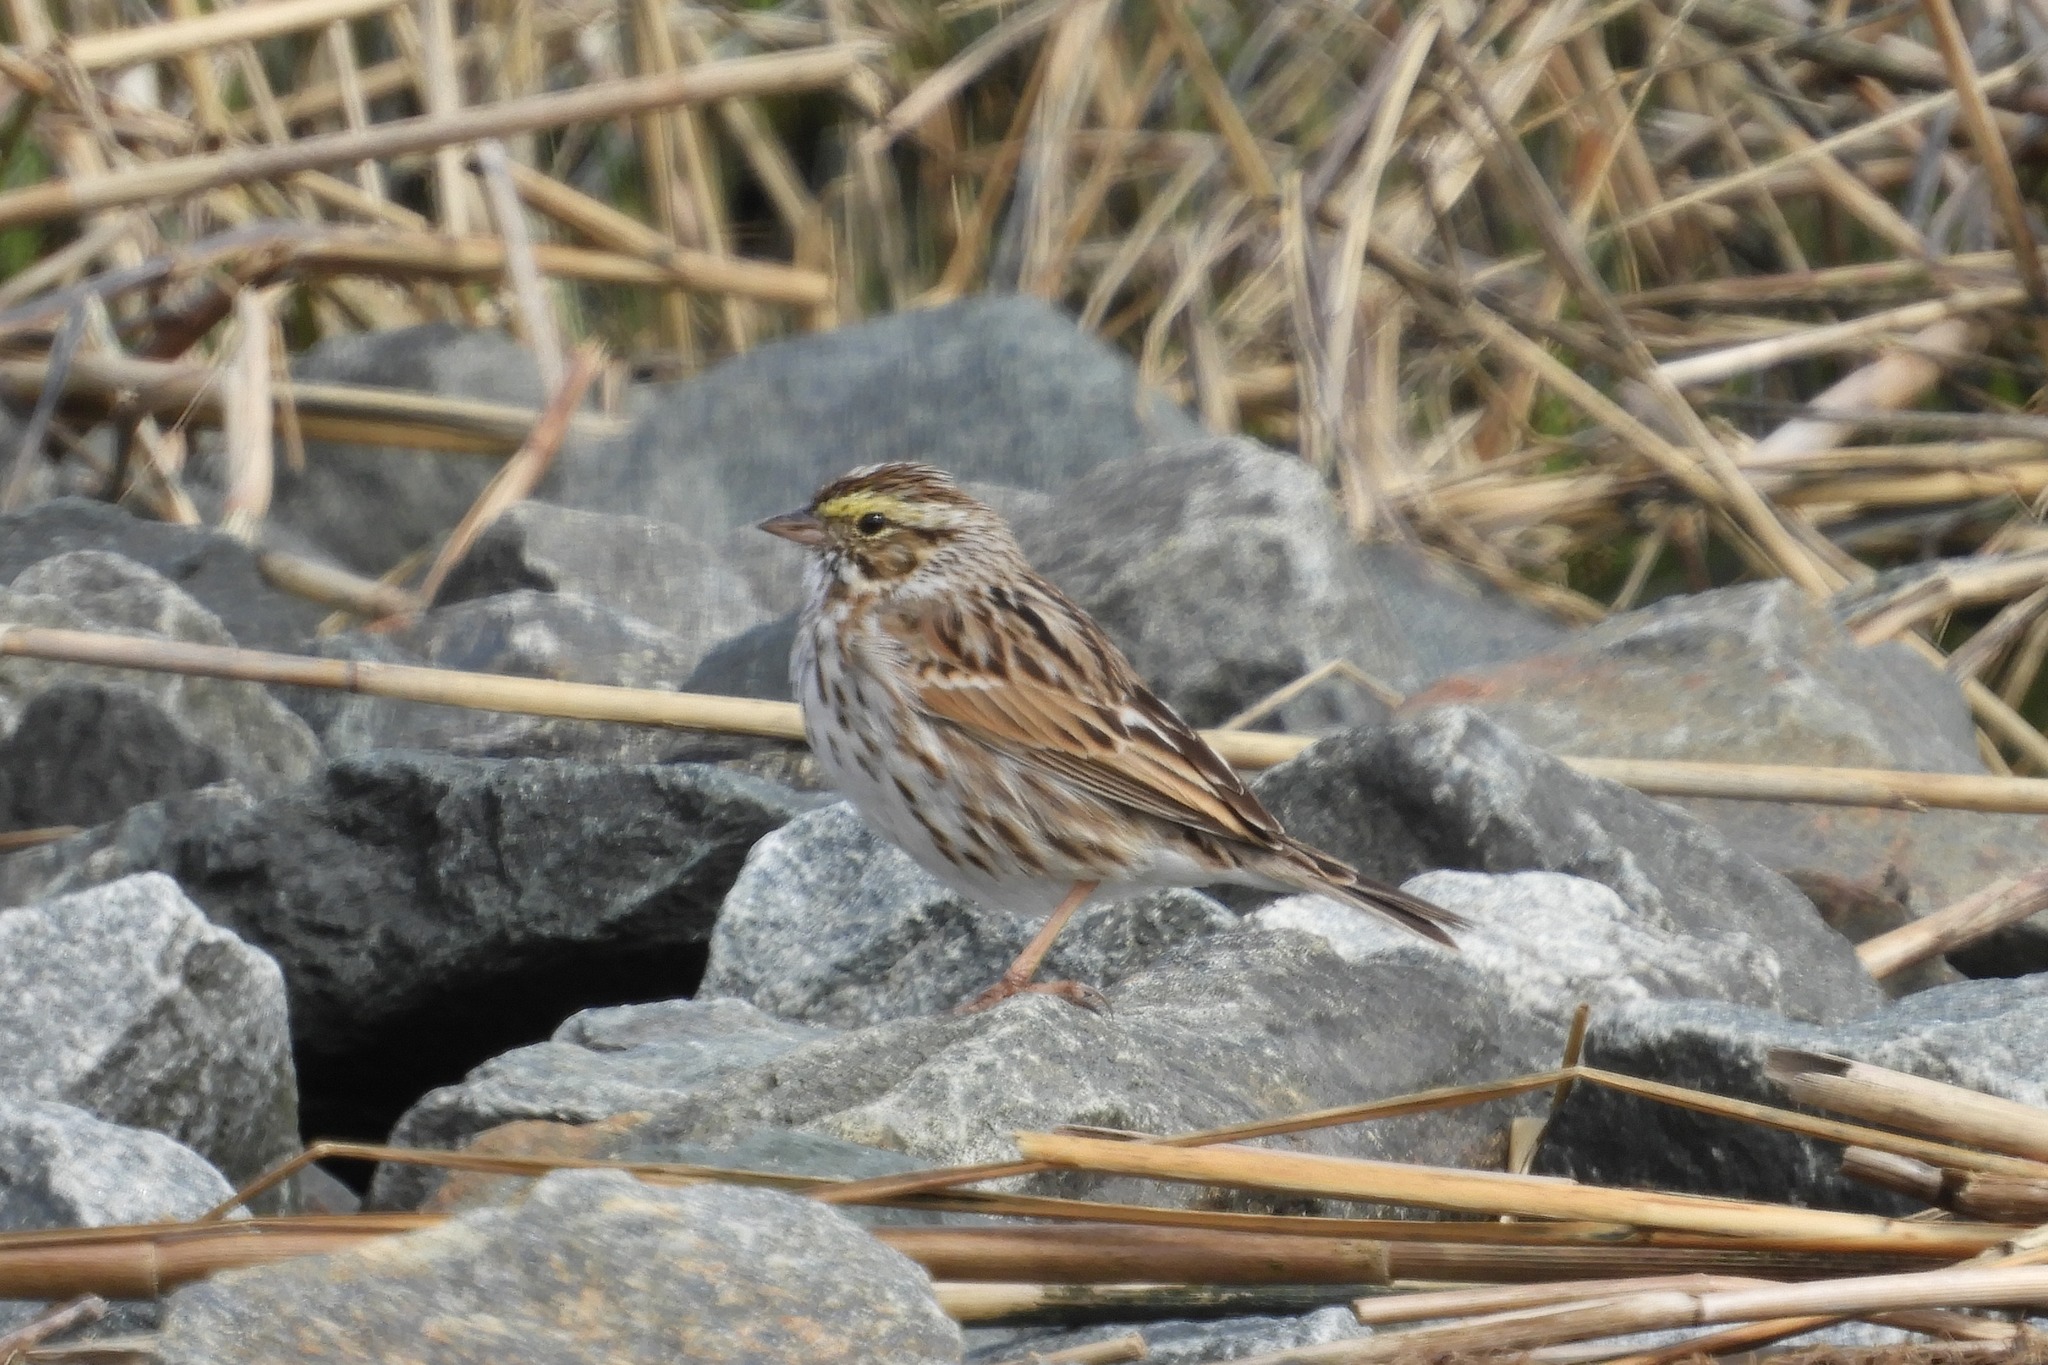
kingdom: Animalia
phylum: Chordata
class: Aves
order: Passeriformes
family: Passerellidae
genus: Passerculus
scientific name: Passerculus sandwichensis
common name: Savannah sparrow
